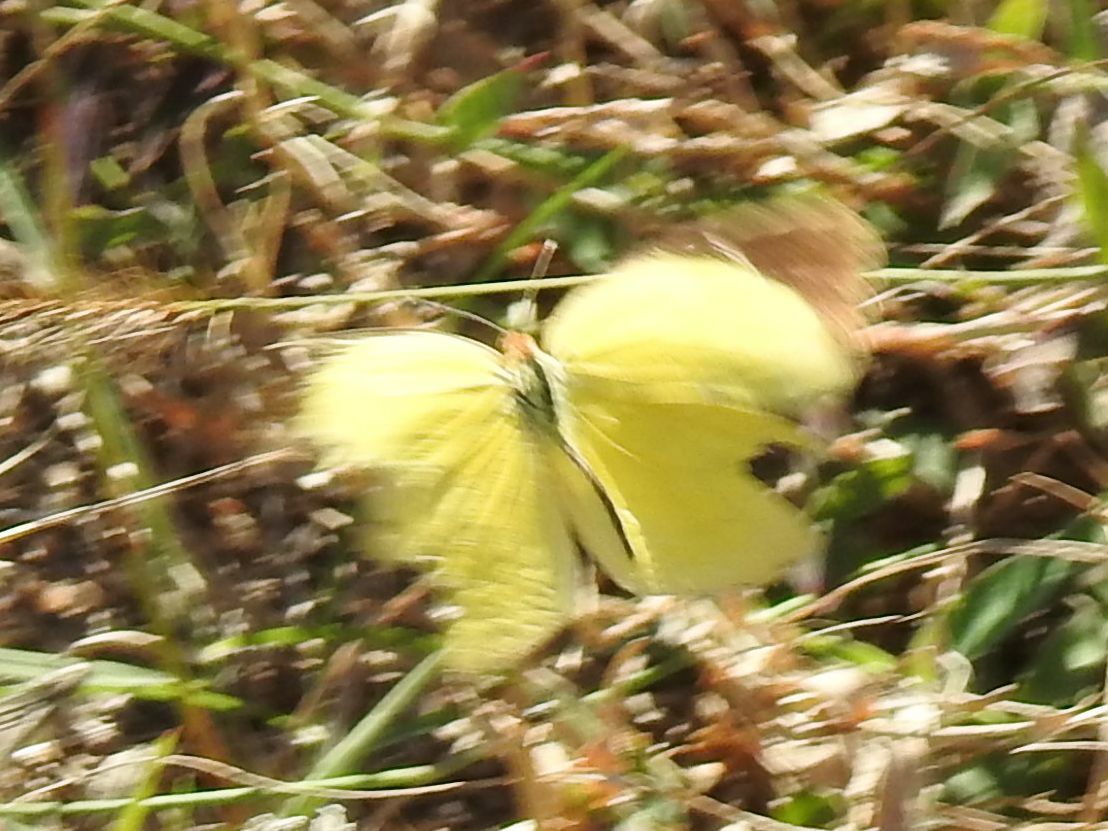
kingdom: Animalia
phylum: Arthropoda
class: Insecta
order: Lepidoptera
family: Pieridae
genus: Eurema
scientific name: Eurema brigitta
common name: Small grass yellow
